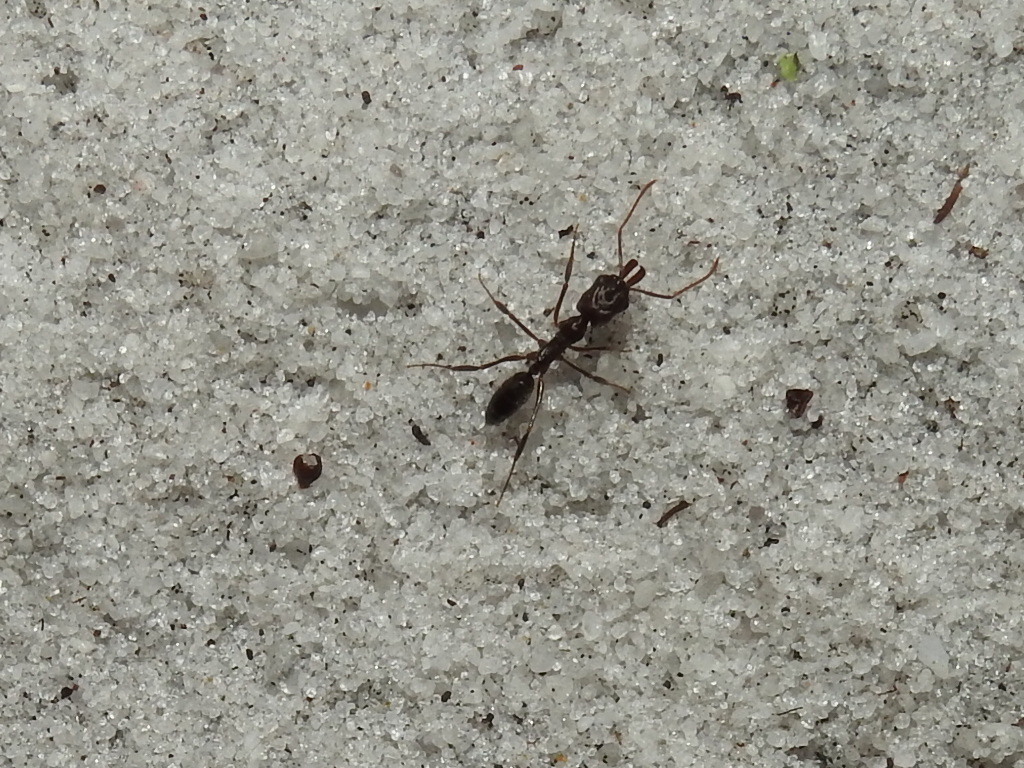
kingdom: Animalia
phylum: Arthropoda
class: Insecta
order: Hymenoptera
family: Formicidae
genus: Odontomachus
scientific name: Odontomachus brunneus
